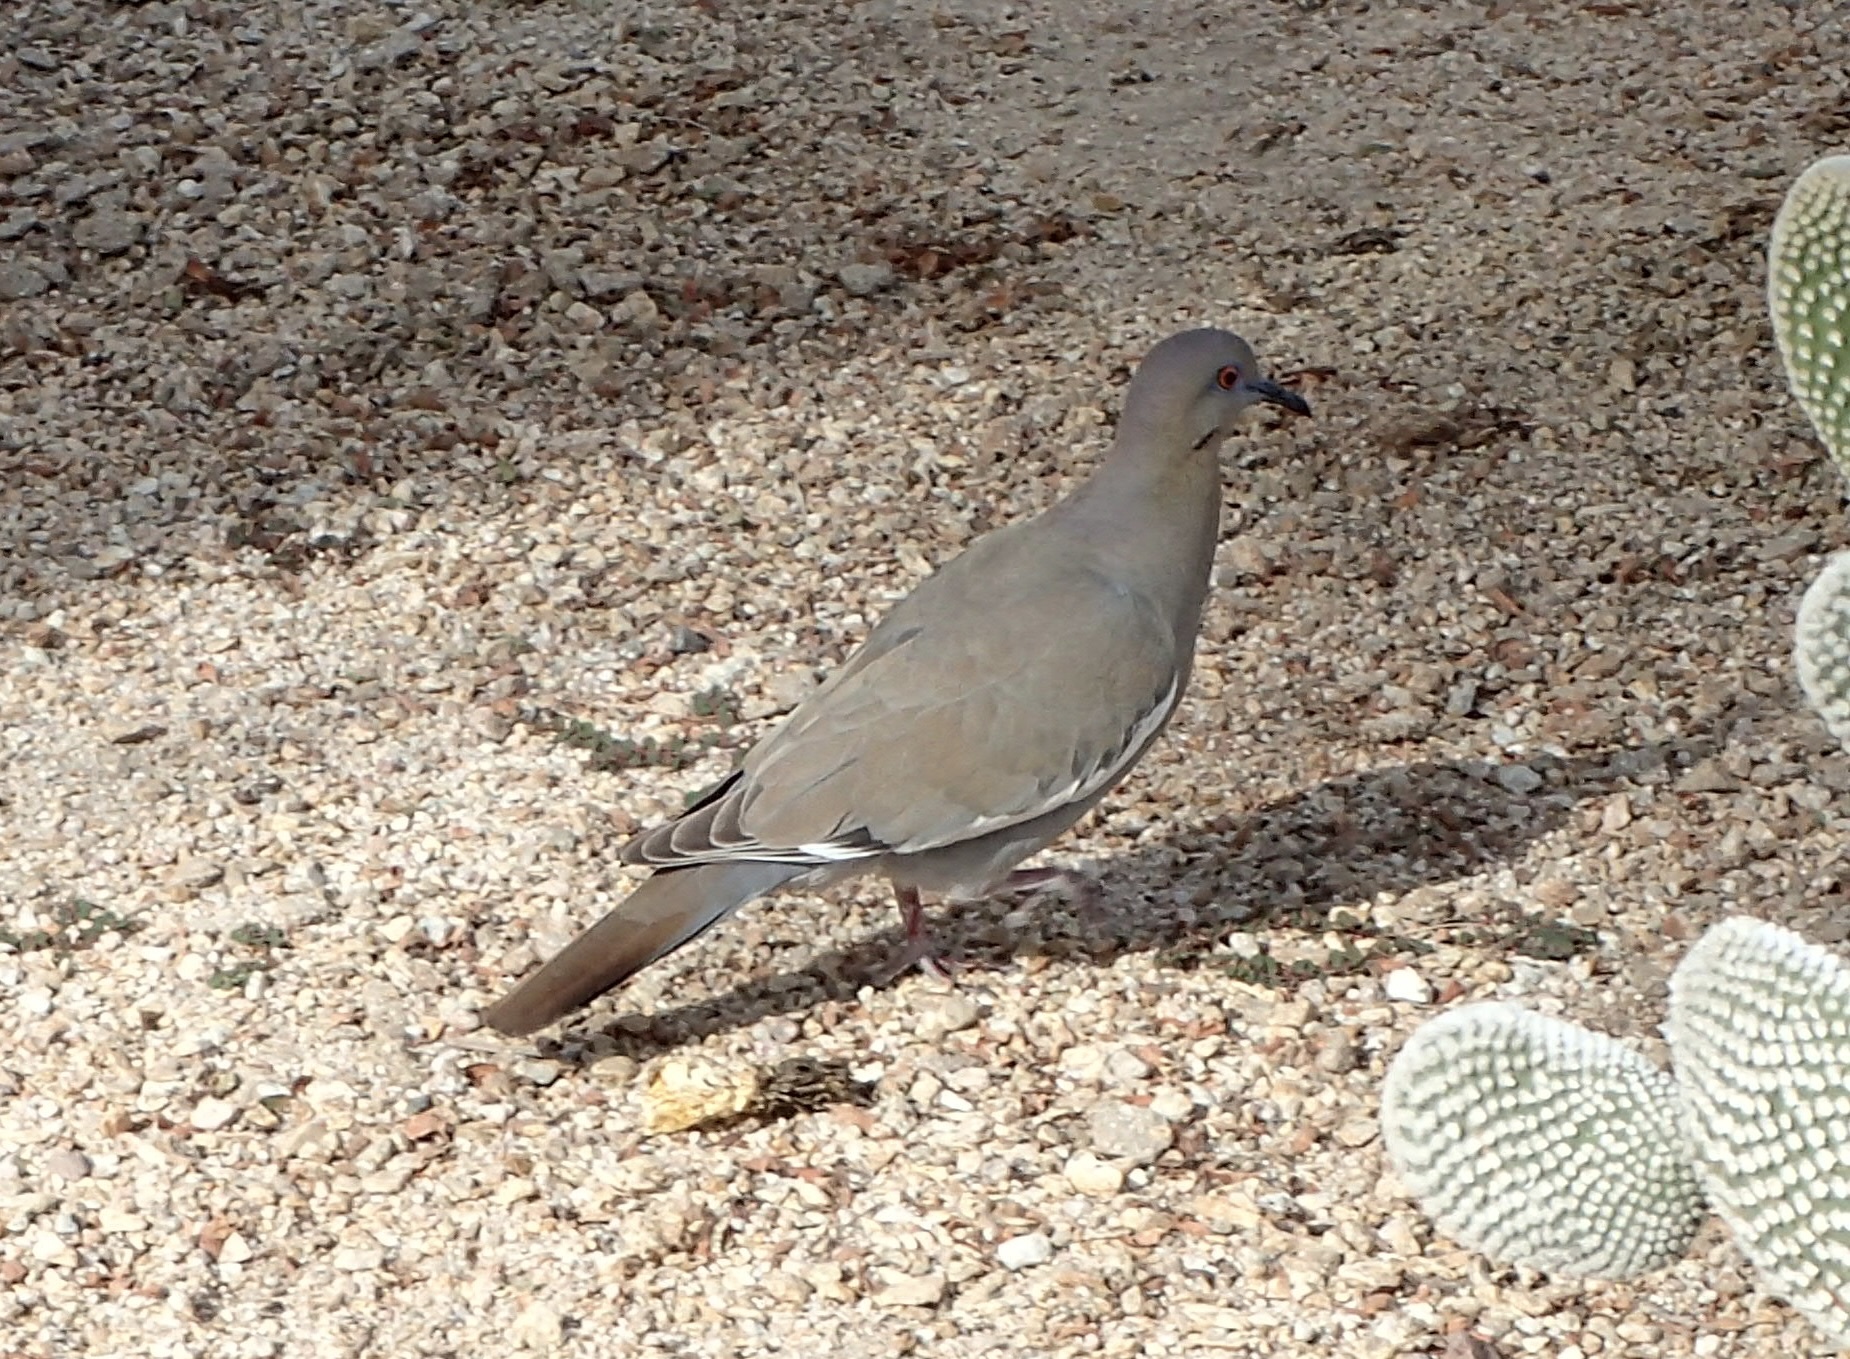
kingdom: Animalia
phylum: Chordata
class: Aves
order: Columbiformes
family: Columbidae
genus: Zenaida
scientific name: Zenaida asiatica
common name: White-winged dove
